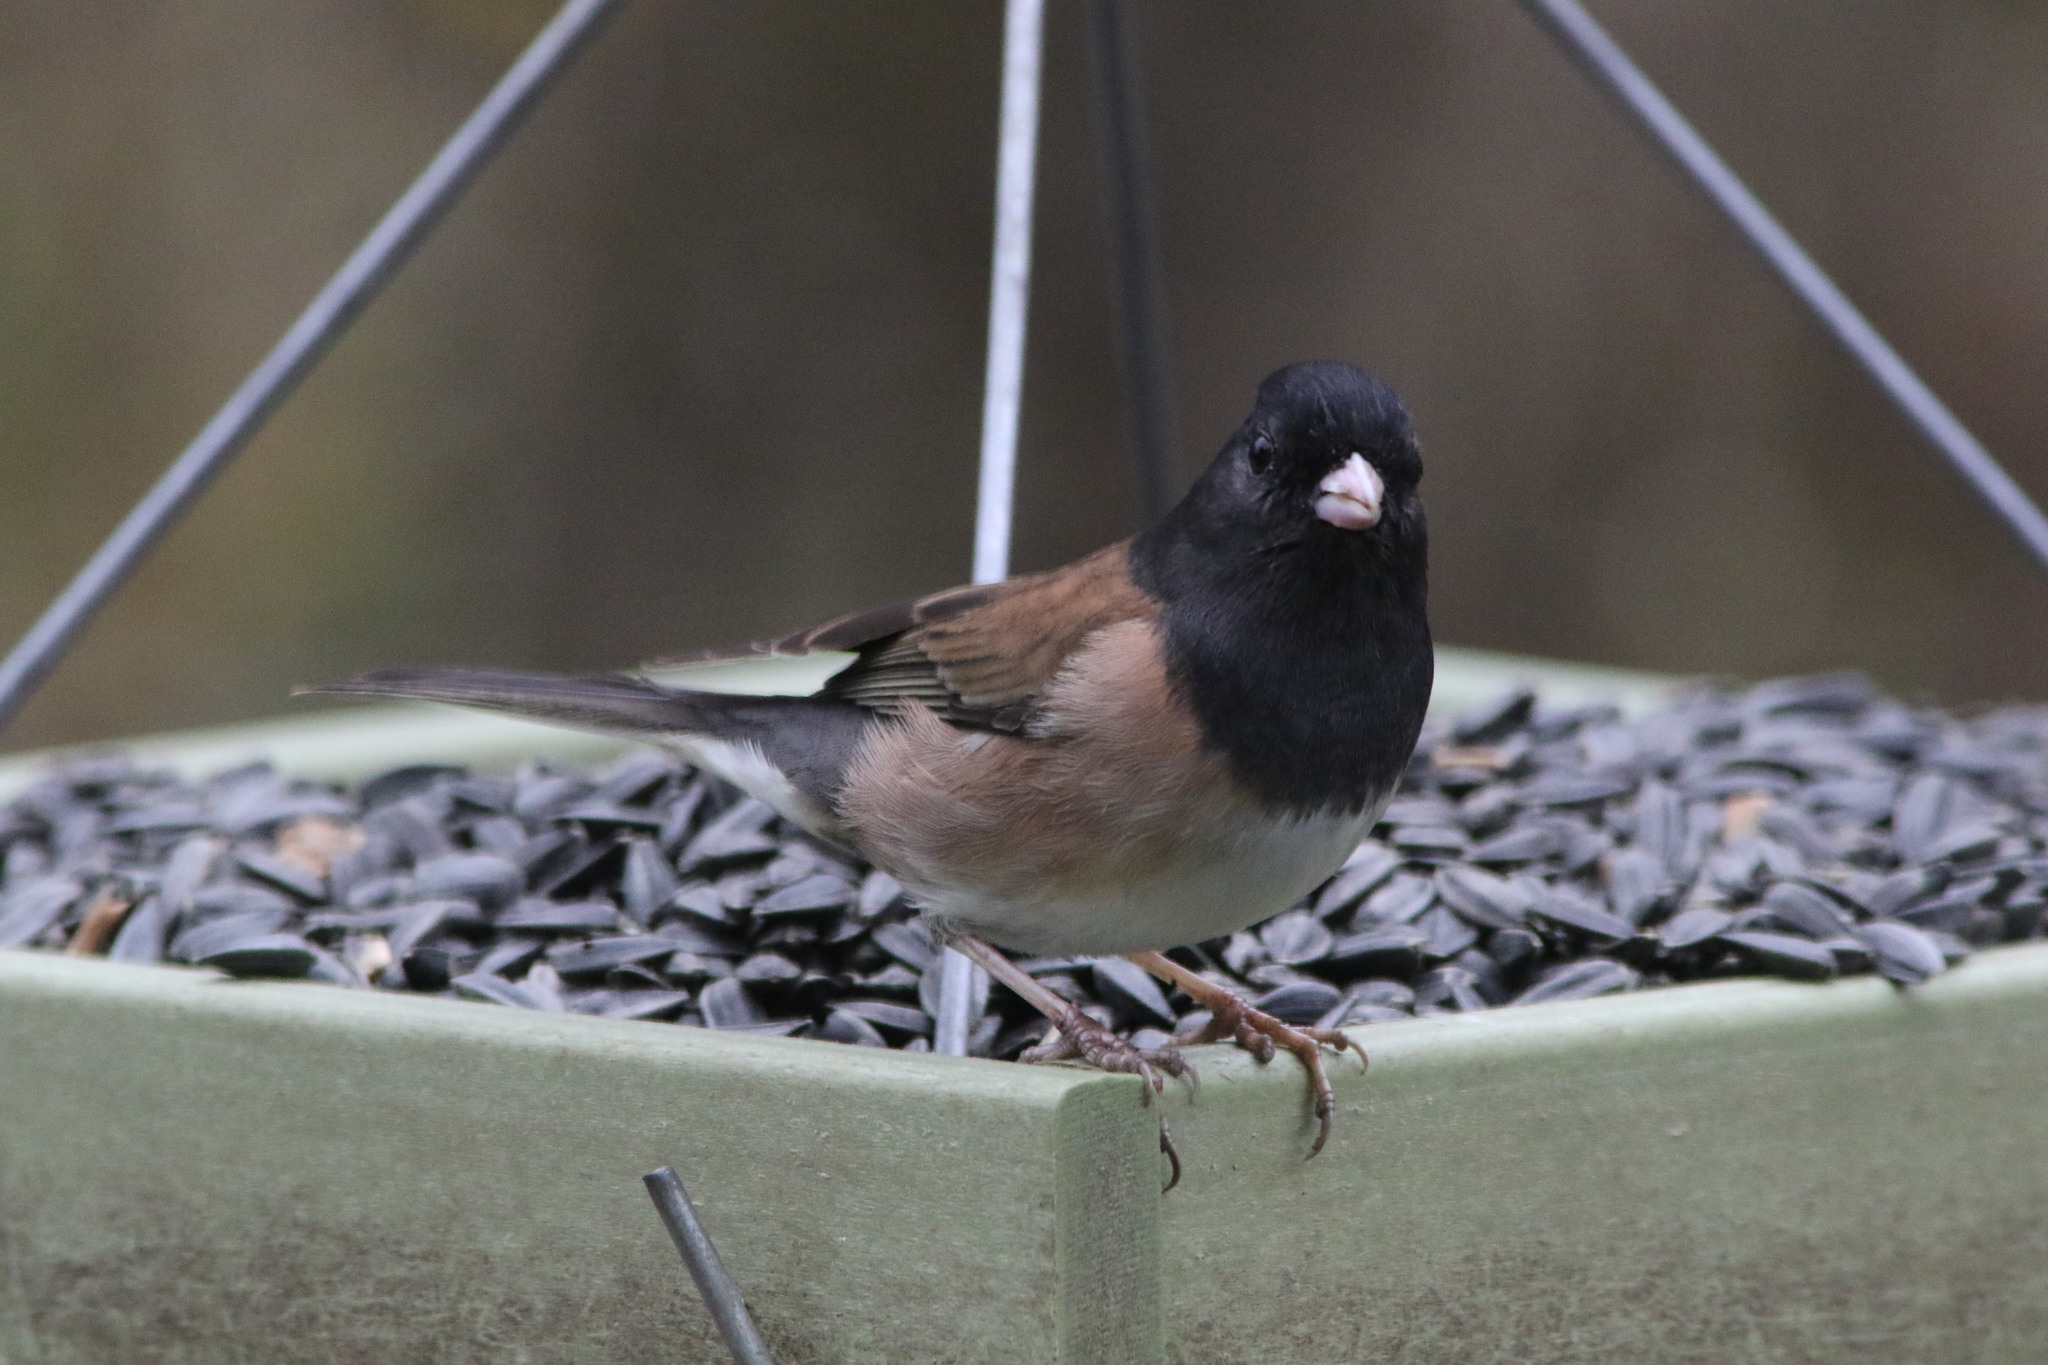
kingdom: Animalia
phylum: Chordata
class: Aves
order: Passeriformes
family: Passerellidae
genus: Junco
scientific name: Junco hyemalis
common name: Dark-eyed junco
